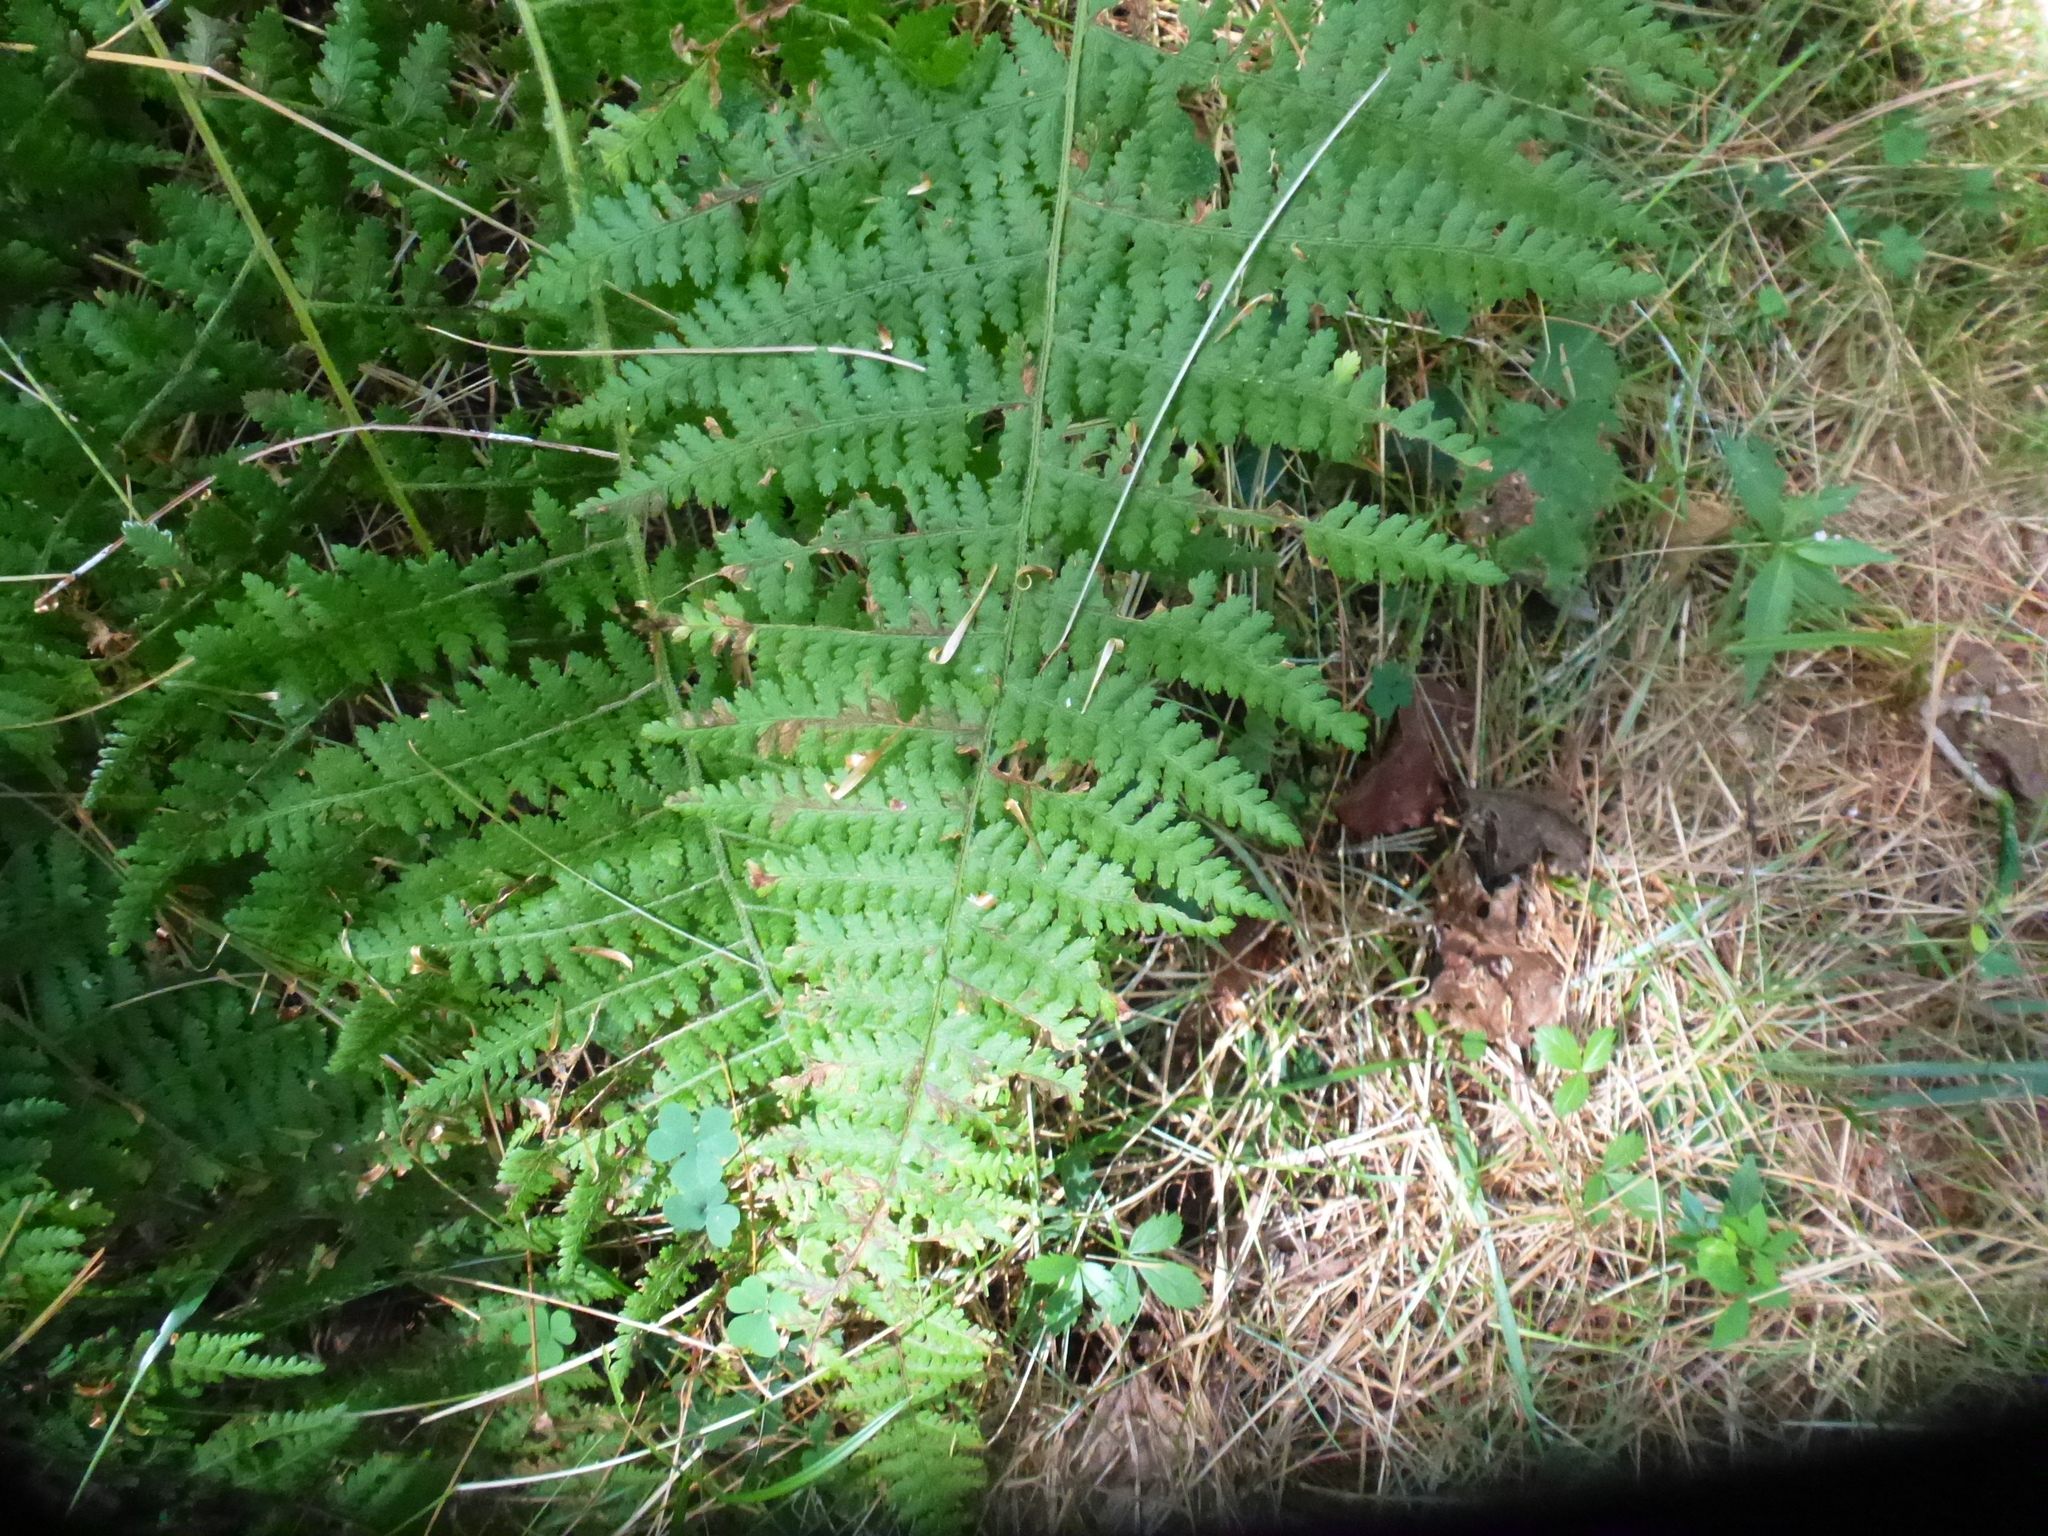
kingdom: Plantae
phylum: Tracheophyta
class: Polypodiopsida
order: Polypodiales
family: Dennstaedtiaceae
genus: Sitobolium
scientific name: Sitobolium punctilobum
